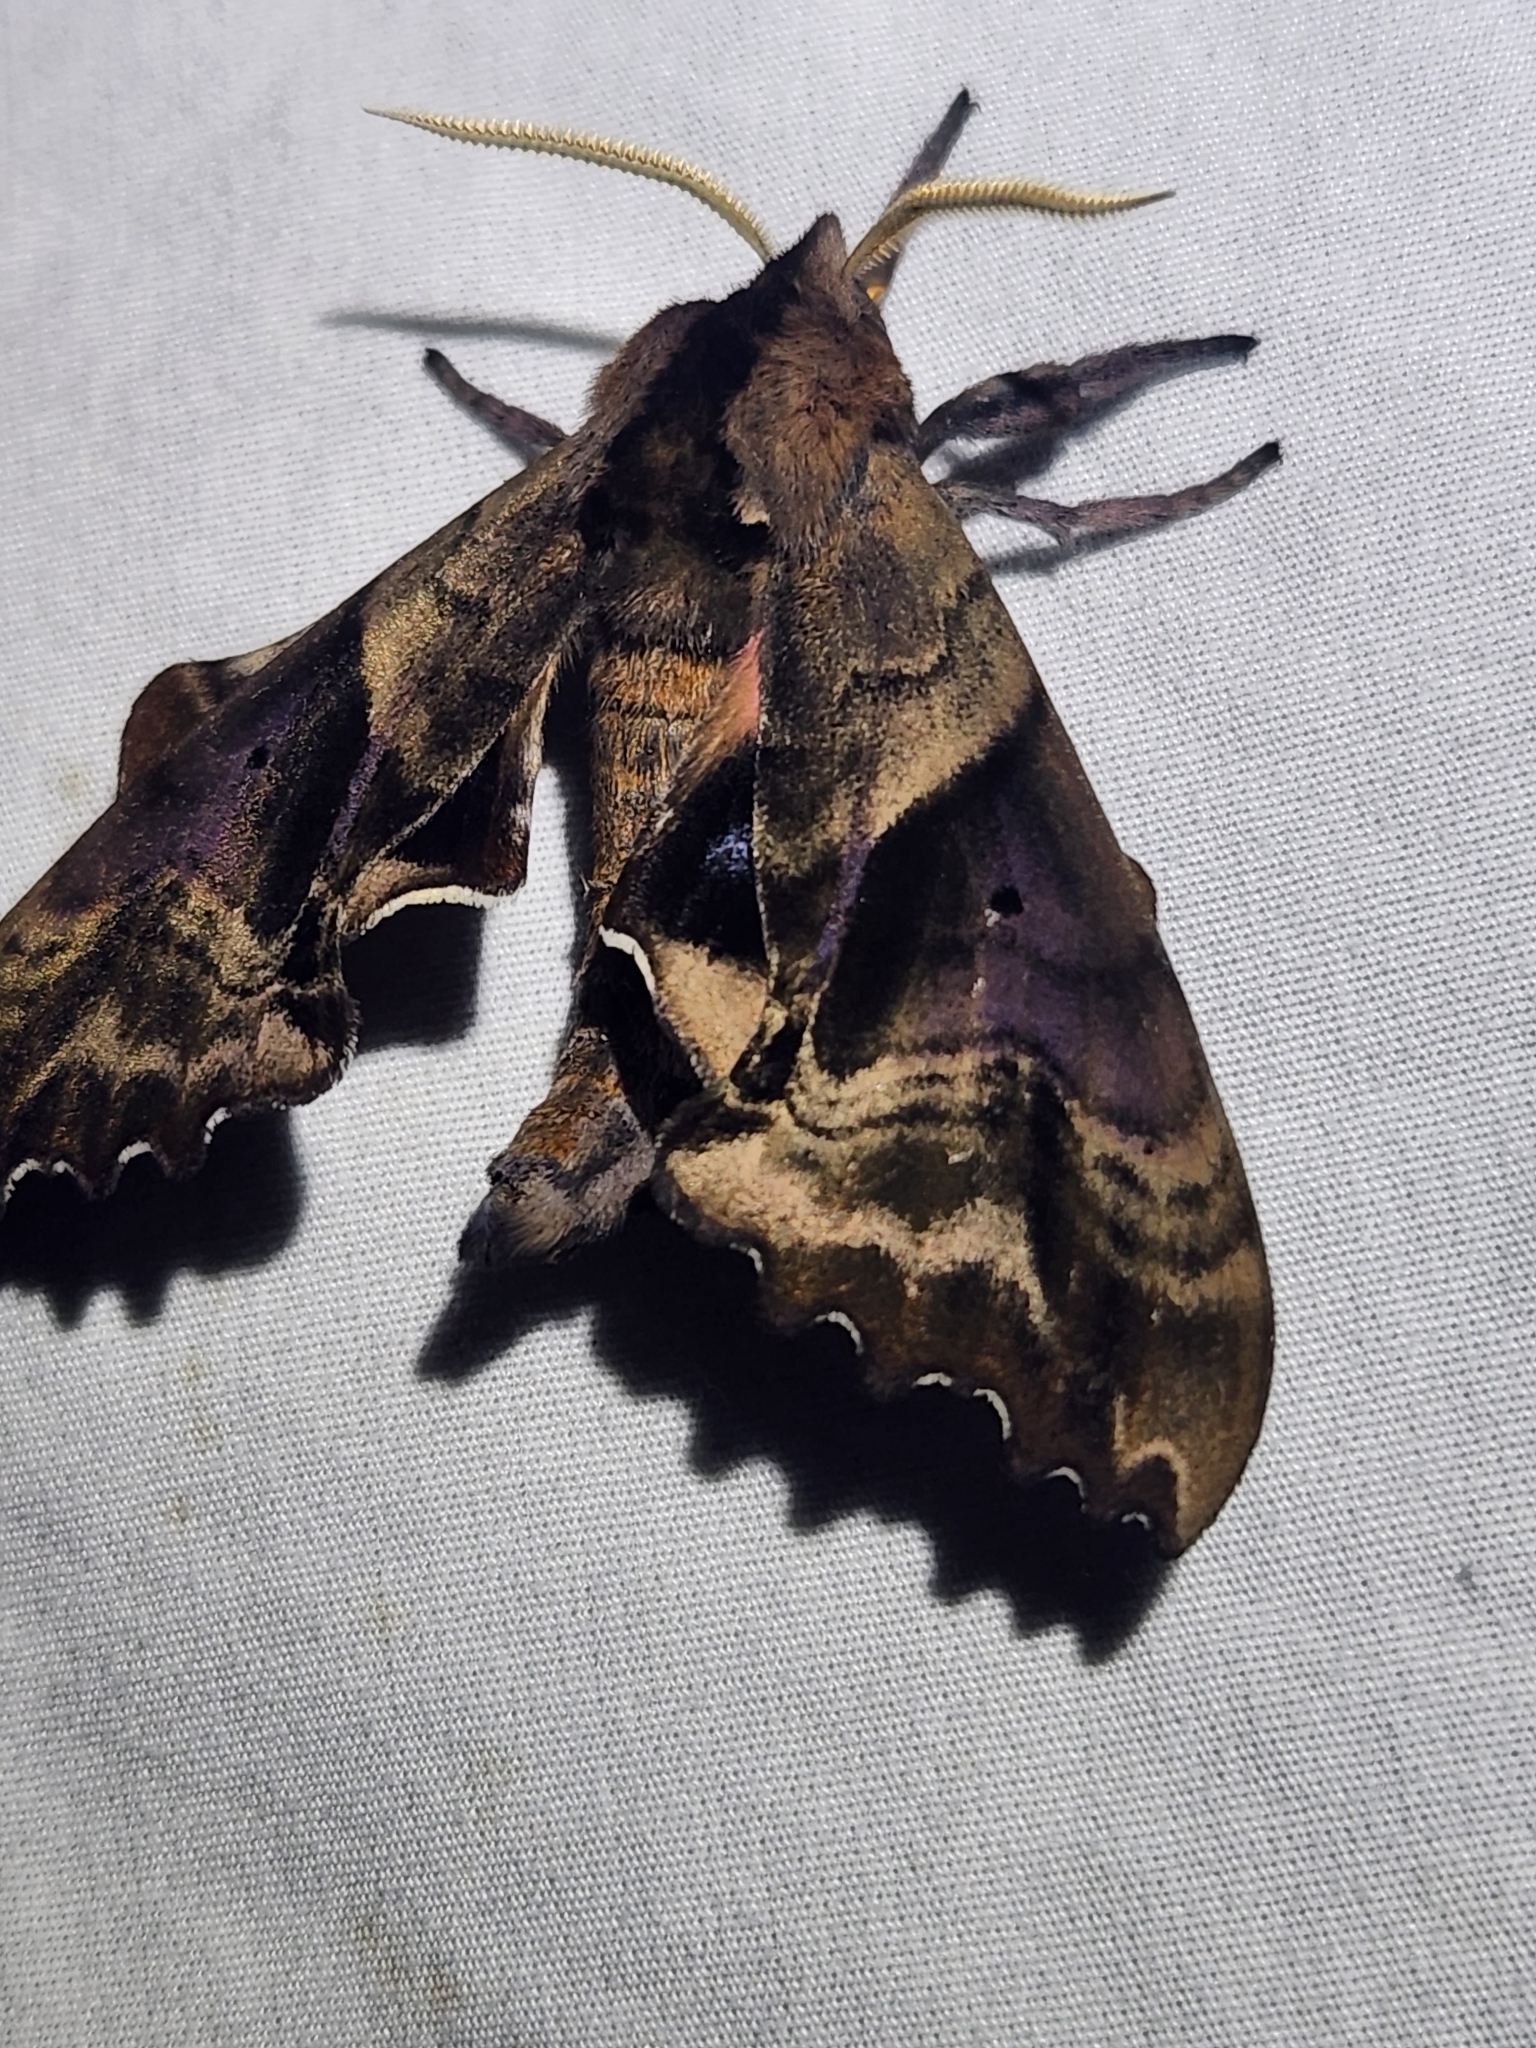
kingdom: Animalia
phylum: Arthropoda
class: Insecta
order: Lepidoptera
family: Sphingidae
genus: Paonias
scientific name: Paonias excaecata
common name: Blind-eyed sphinx
